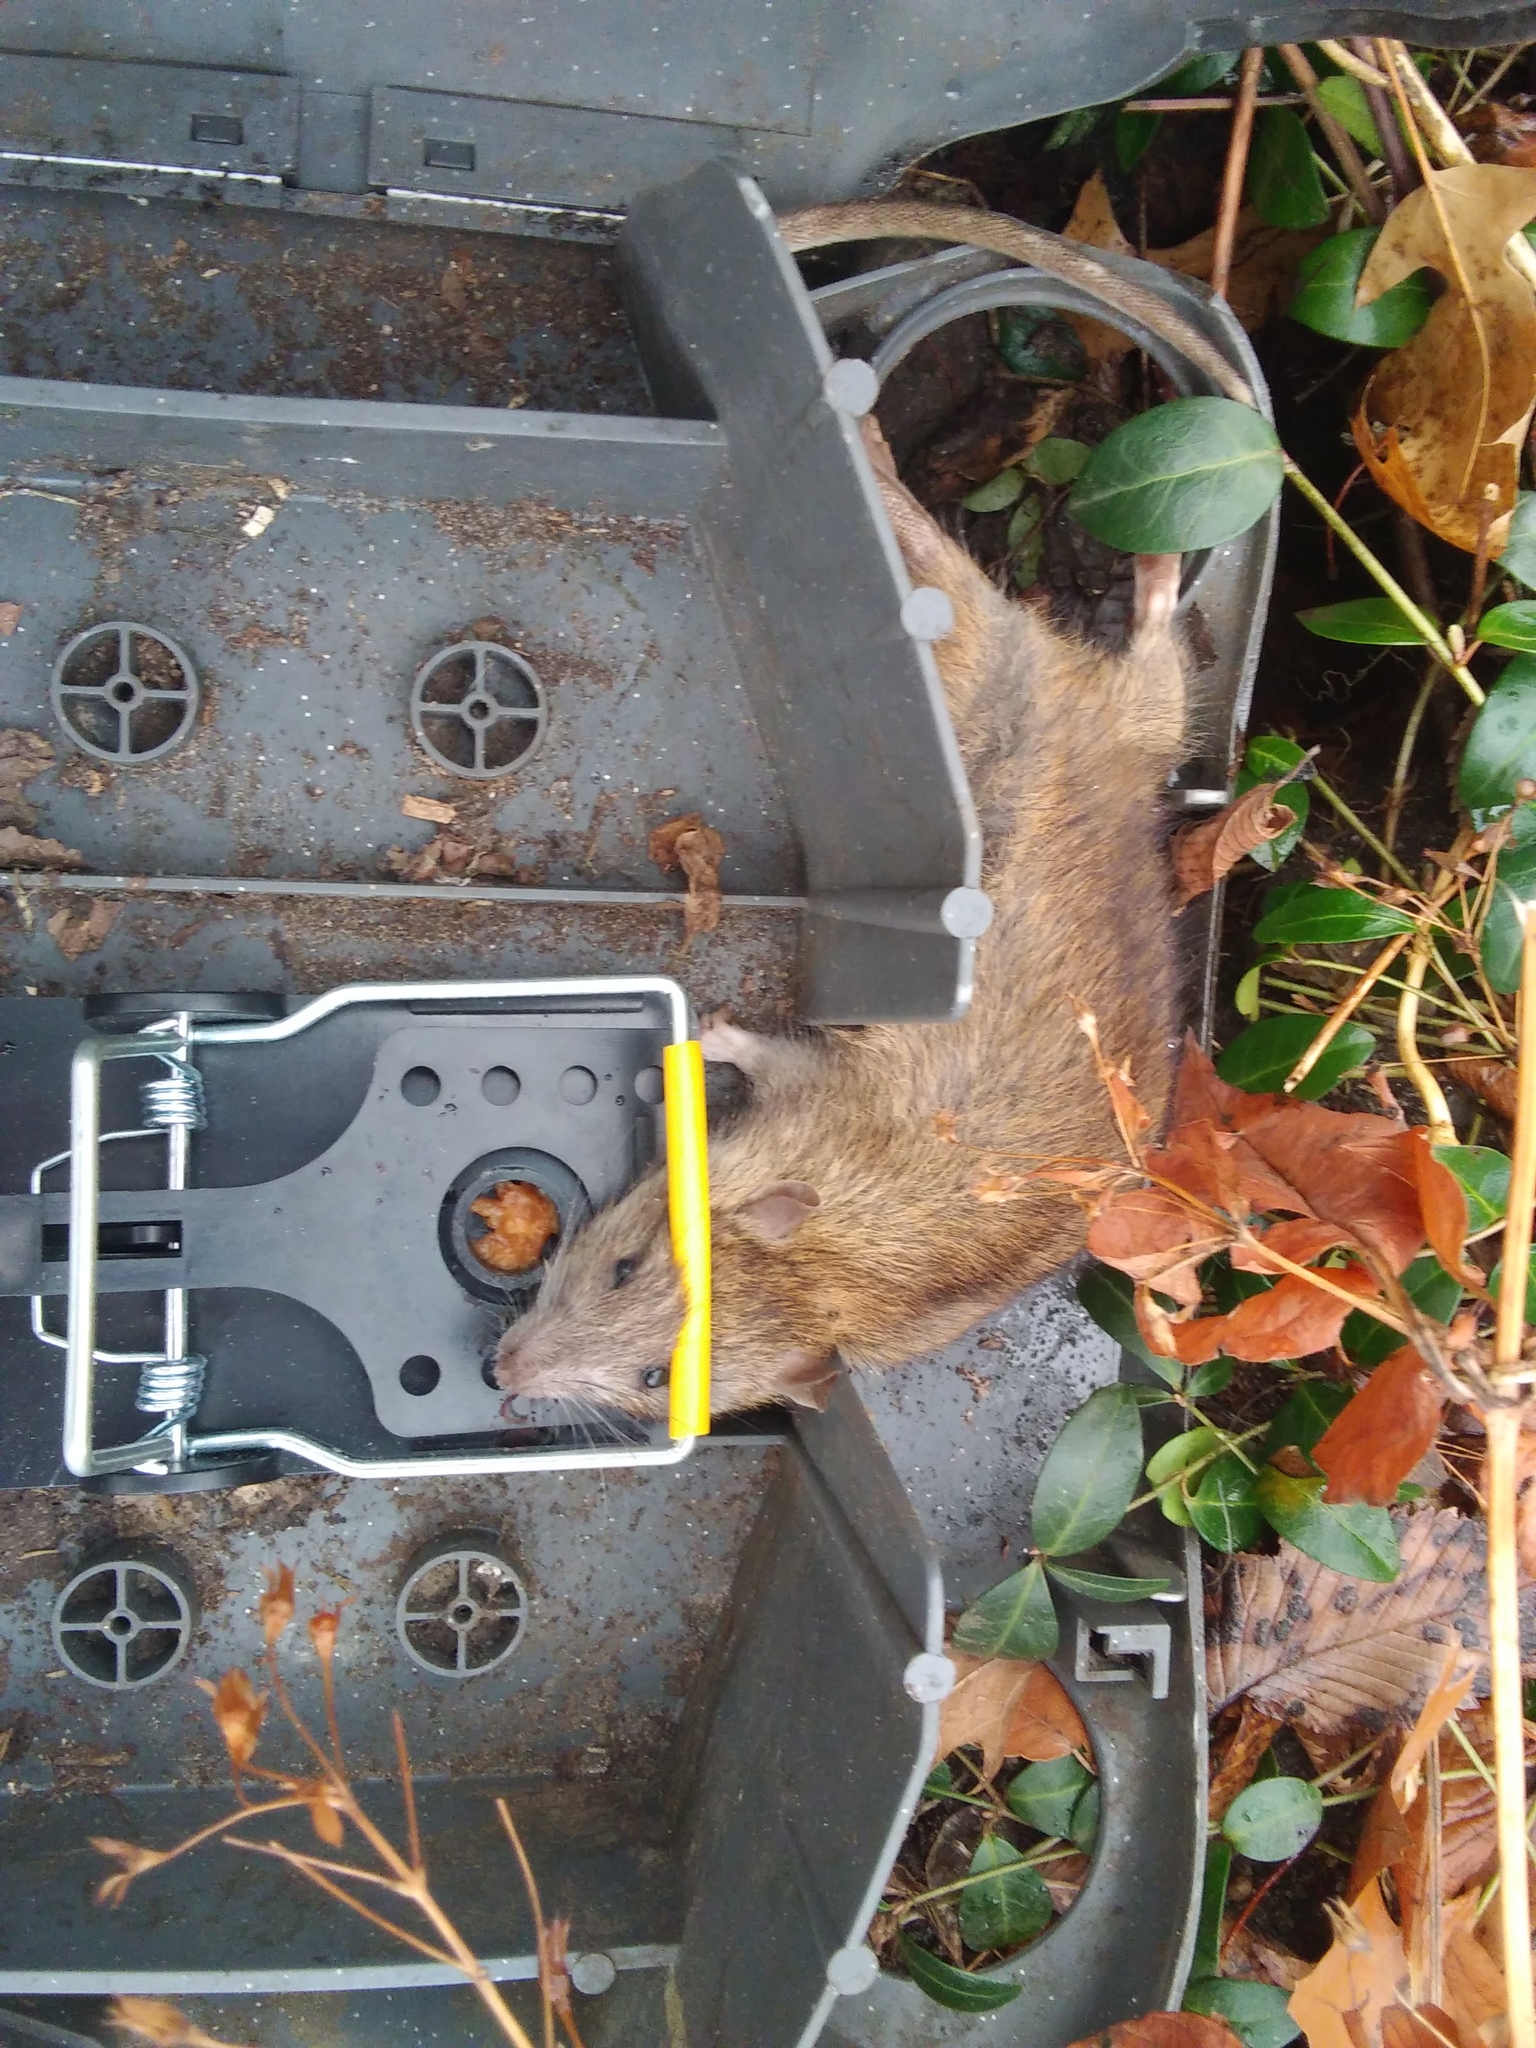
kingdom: Animalia
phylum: Chordata
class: Mammalia
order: Rodentia
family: Muridae
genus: Rattus
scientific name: Rattus norvegicus
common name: Brown rat
